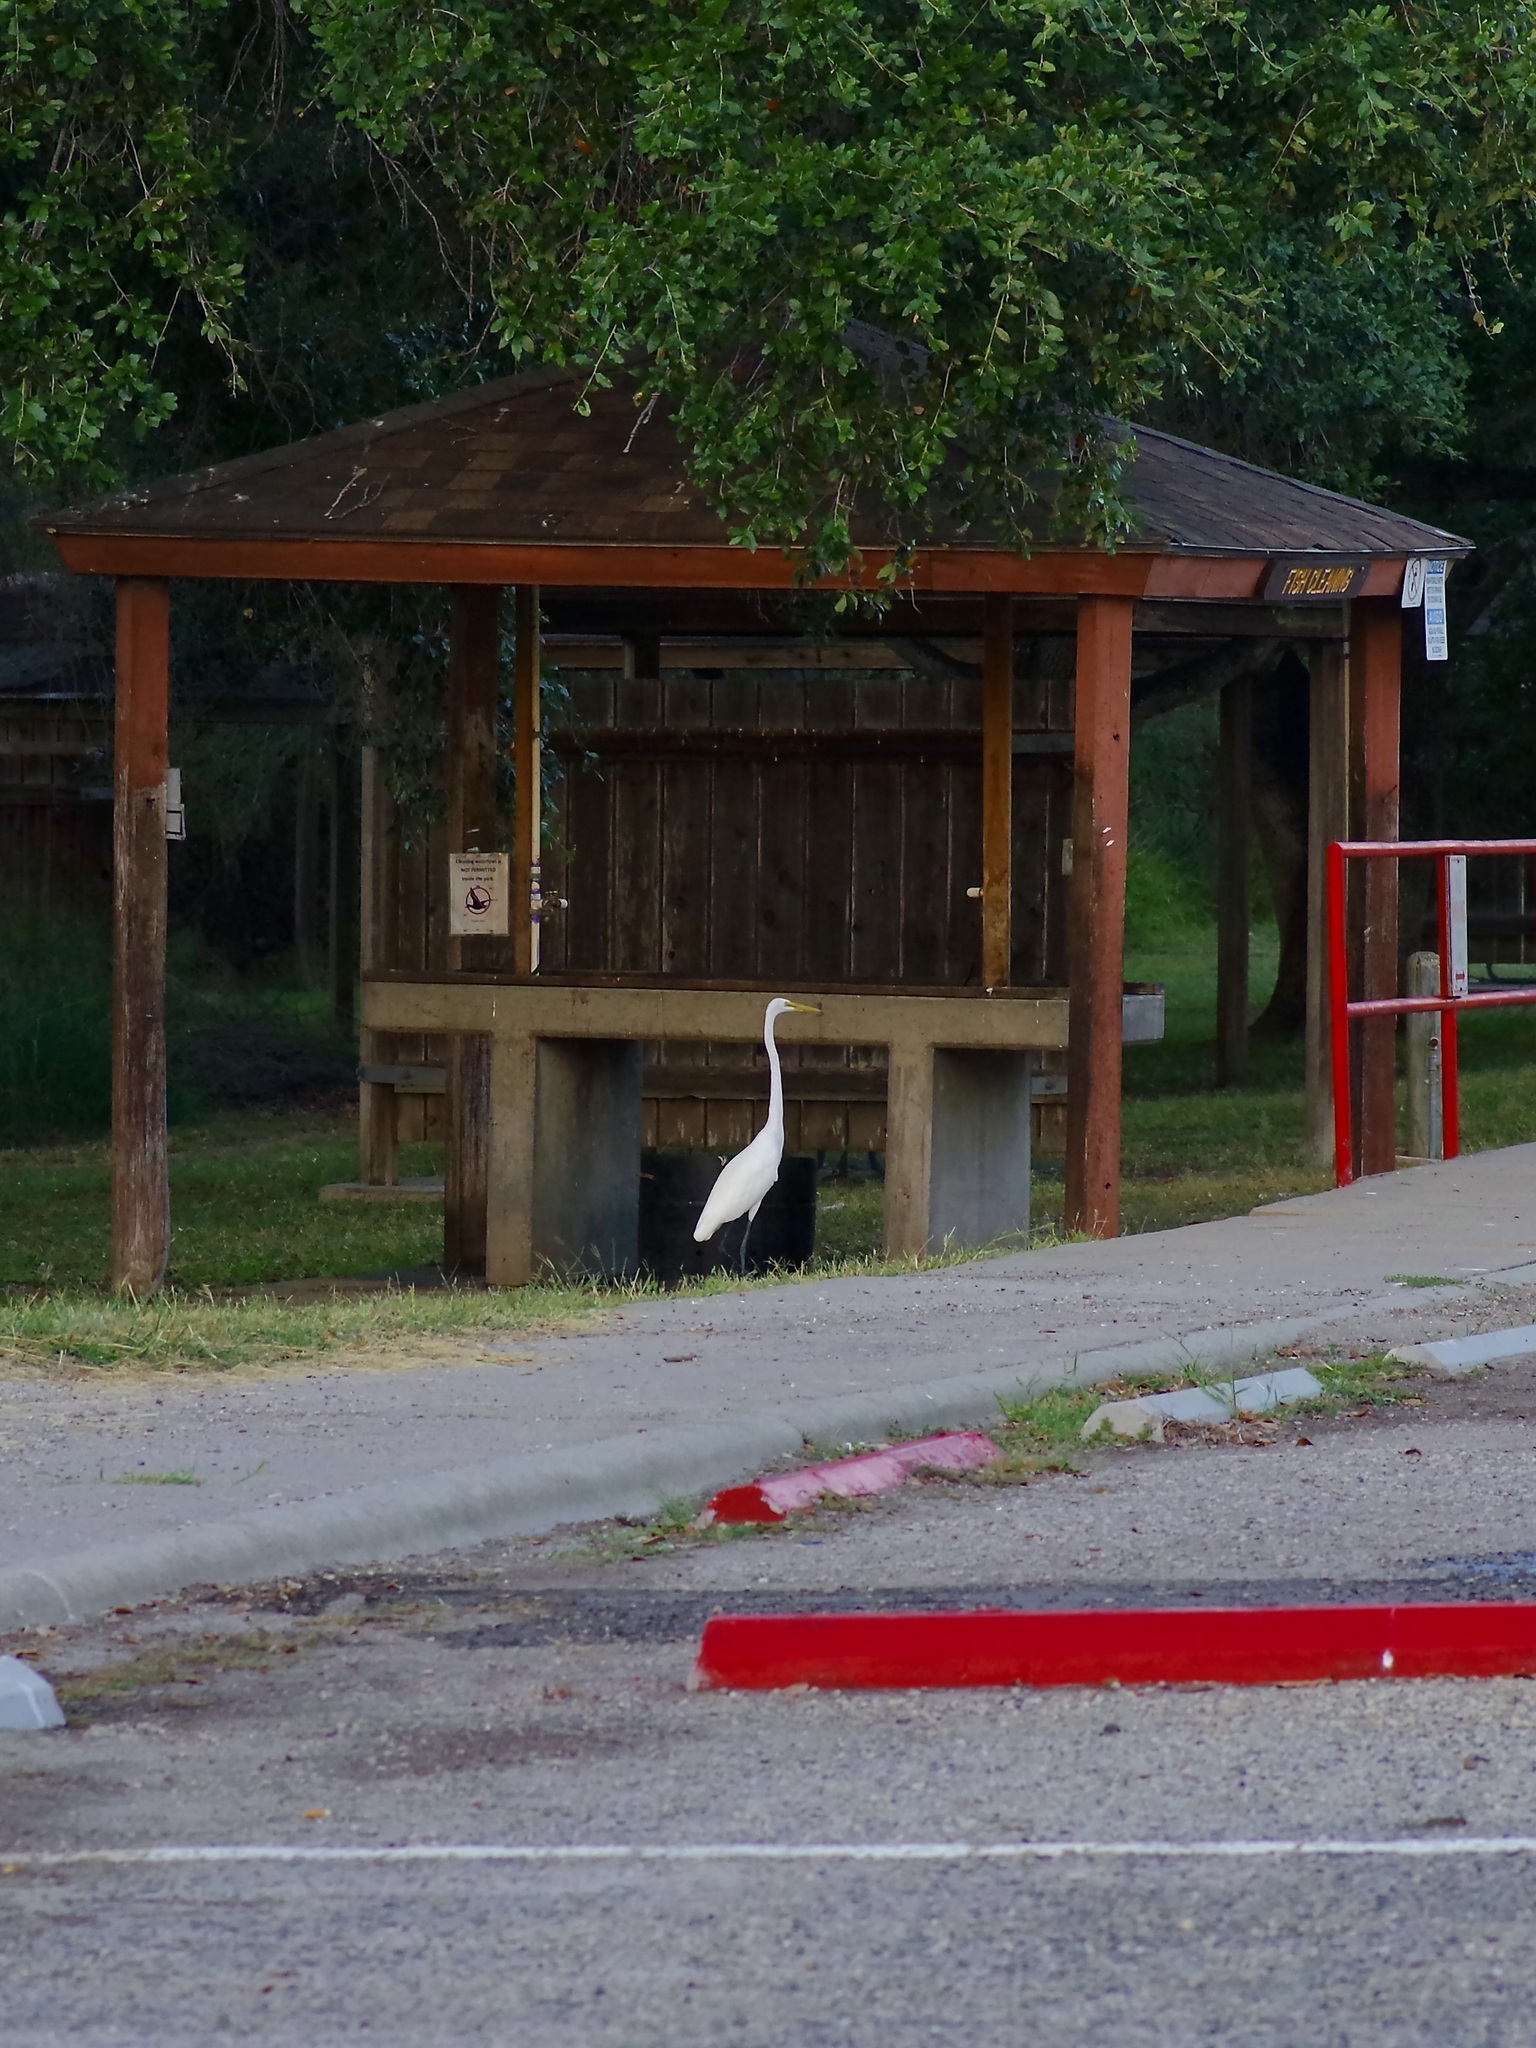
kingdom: Animalia
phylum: Chordata
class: Aves
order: Pelecaniformes
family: Ardeidae
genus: Ardea
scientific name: Ardea alba
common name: Great egret
